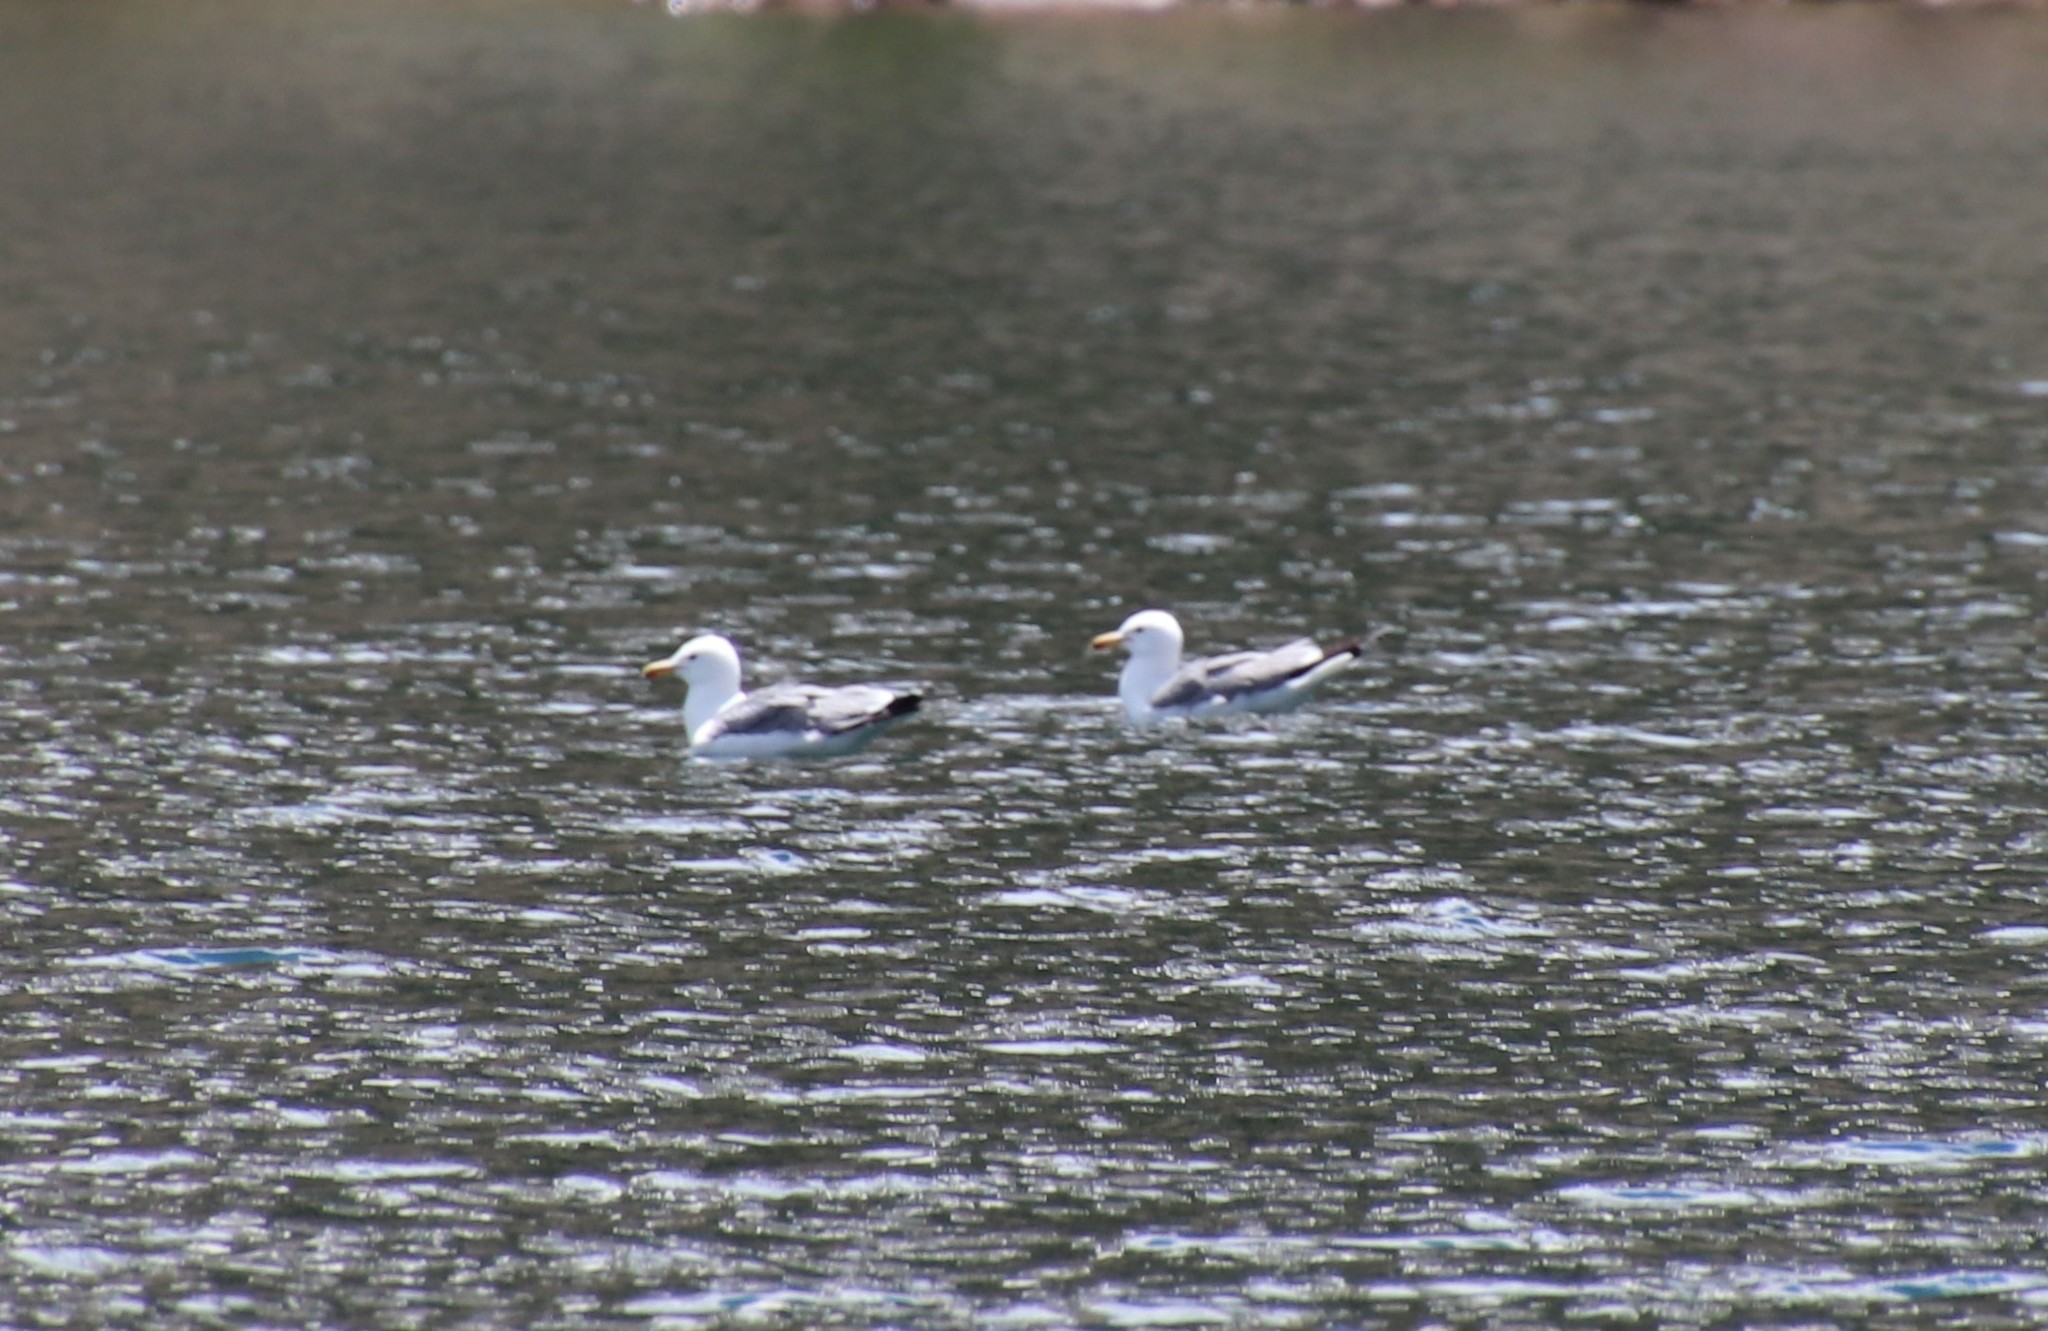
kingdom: Animalia
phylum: Chordata
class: Aves
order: Charadriiformes
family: Laridae
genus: Larus
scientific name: Larus californicus
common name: California gull
